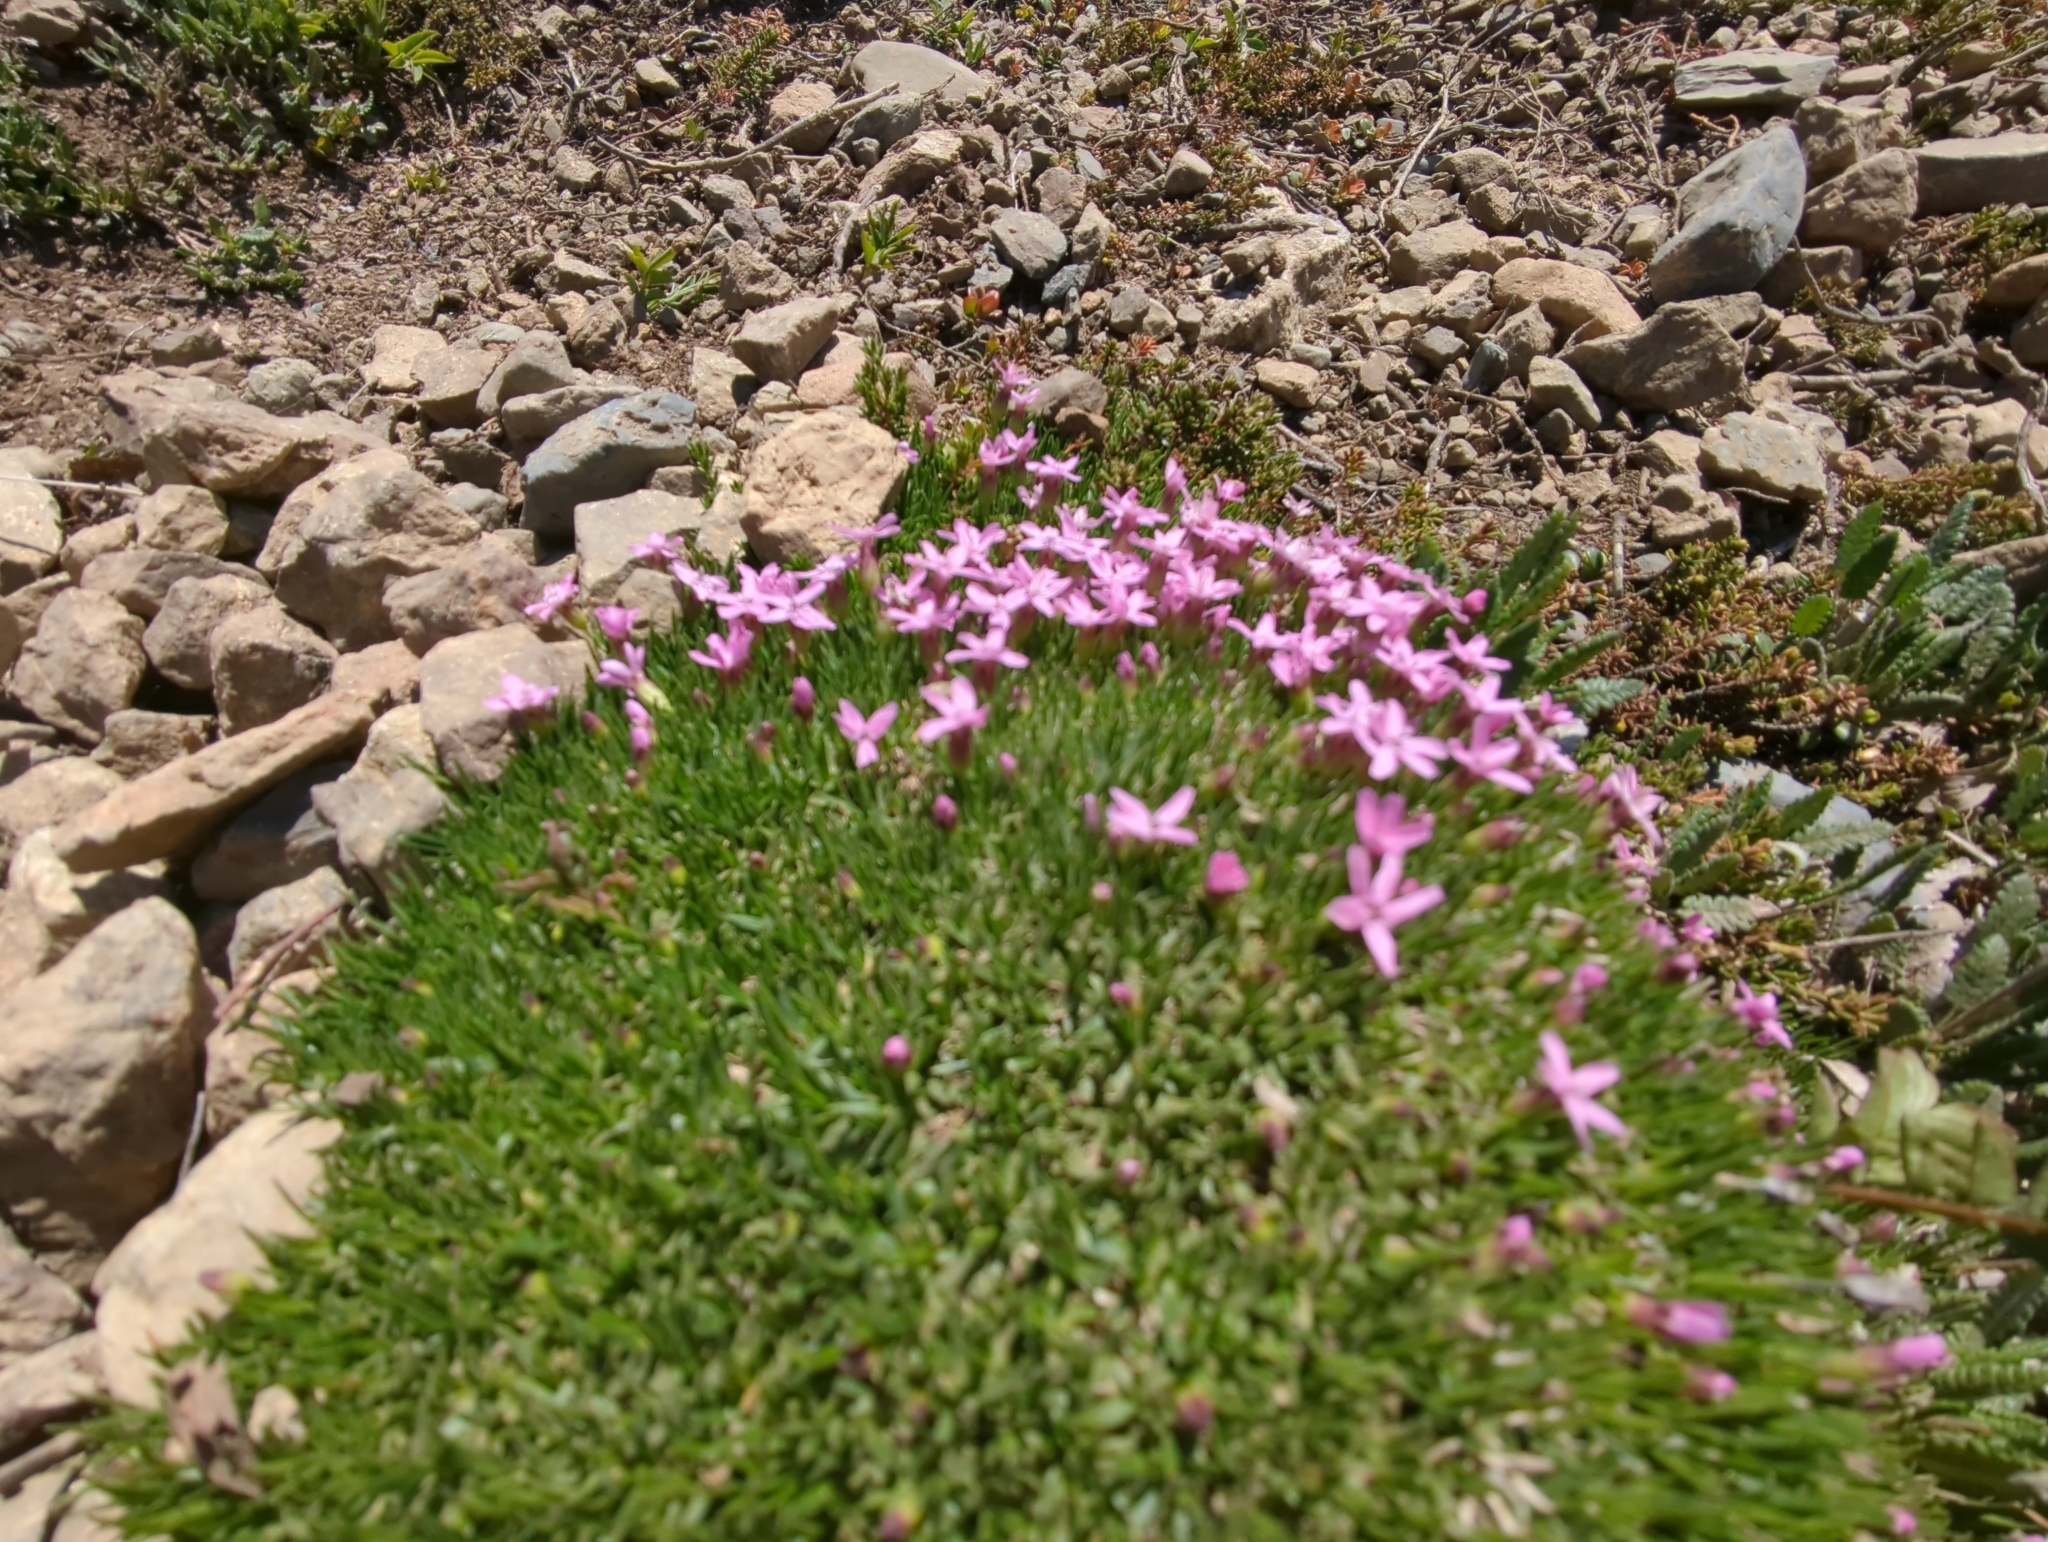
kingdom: Plantae
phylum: Tracheophyta
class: Magnoliopsida
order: Caryophyllales
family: Caryophyllaceae
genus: Silene
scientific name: Silene acaulis
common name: Moss campion
